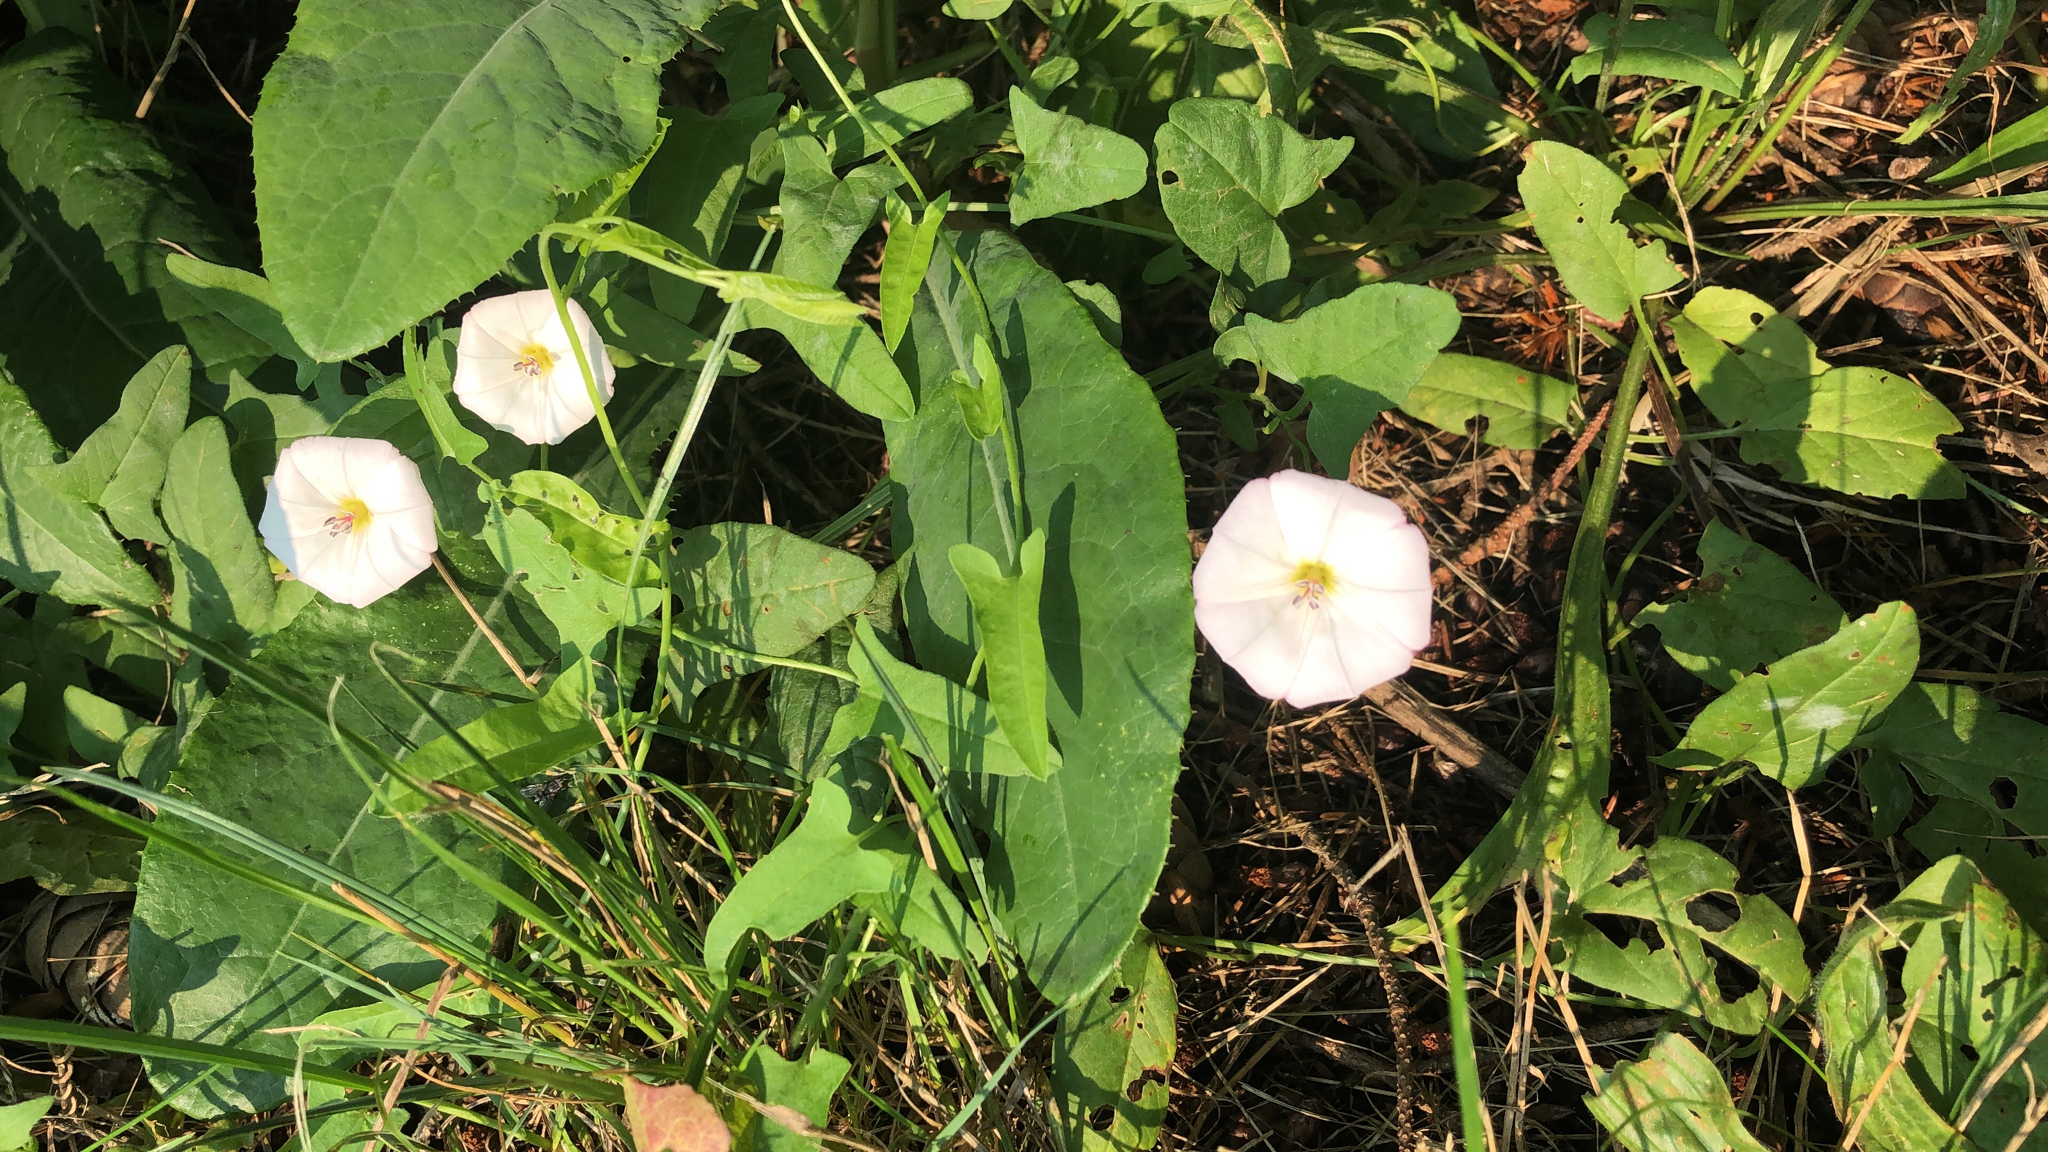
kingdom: Plantae
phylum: Tracheophyta
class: Magnoliopsida
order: Solanales
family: Convolvulaceae
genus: Convolvulus
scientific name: Convolvulus arvensis
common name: Field bindweed
